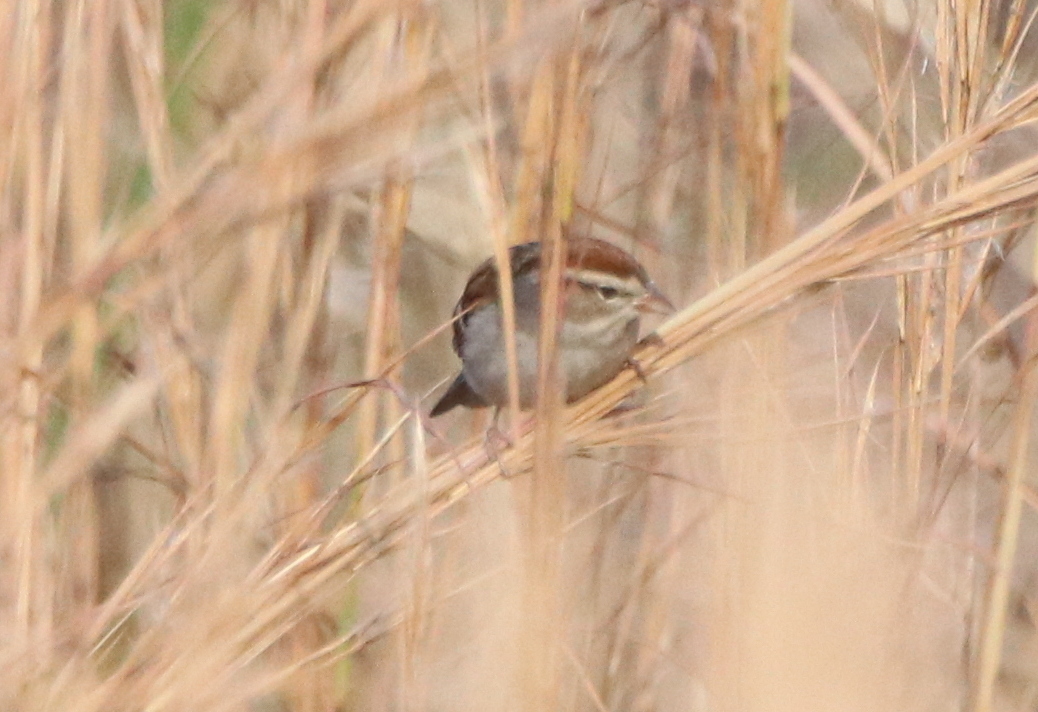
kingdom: Animalia
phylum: Chordata
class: Aves
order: Passeriformes
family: Passerellidae
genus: Spizella
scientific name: Spizella passerina
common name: Chipping sparrow
